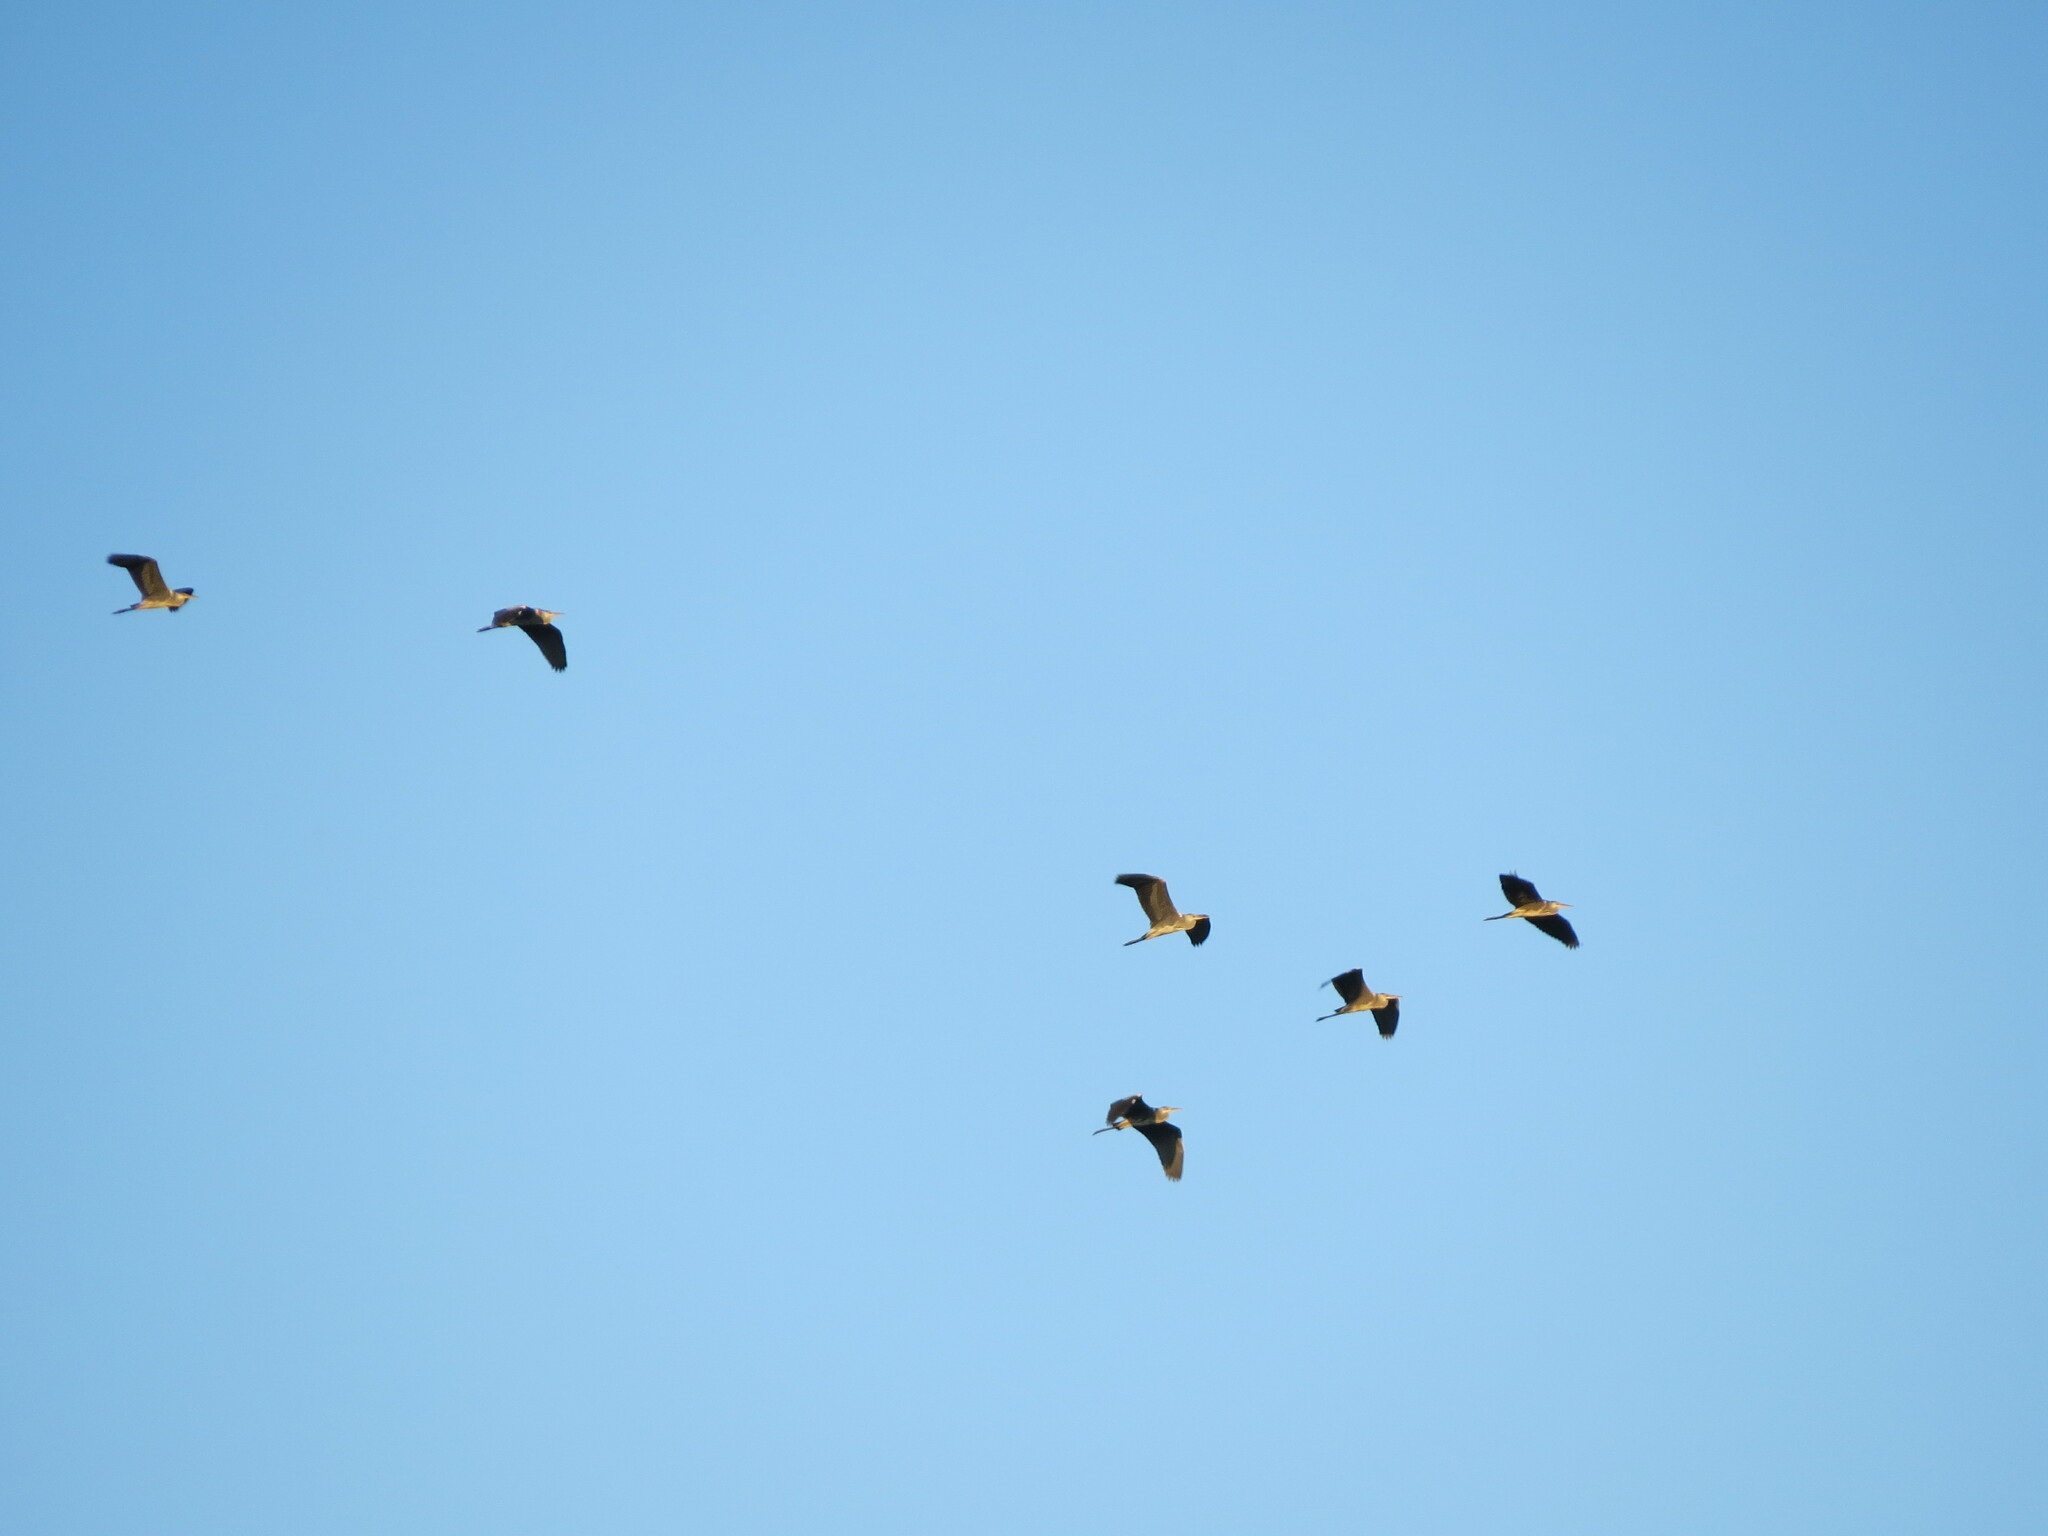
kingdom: Animalia
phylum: Chordata
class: Aves
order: Pelecaniformes
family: Ardeidae
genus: Ardea
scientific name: Ardea cinerea
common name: Grey heron
